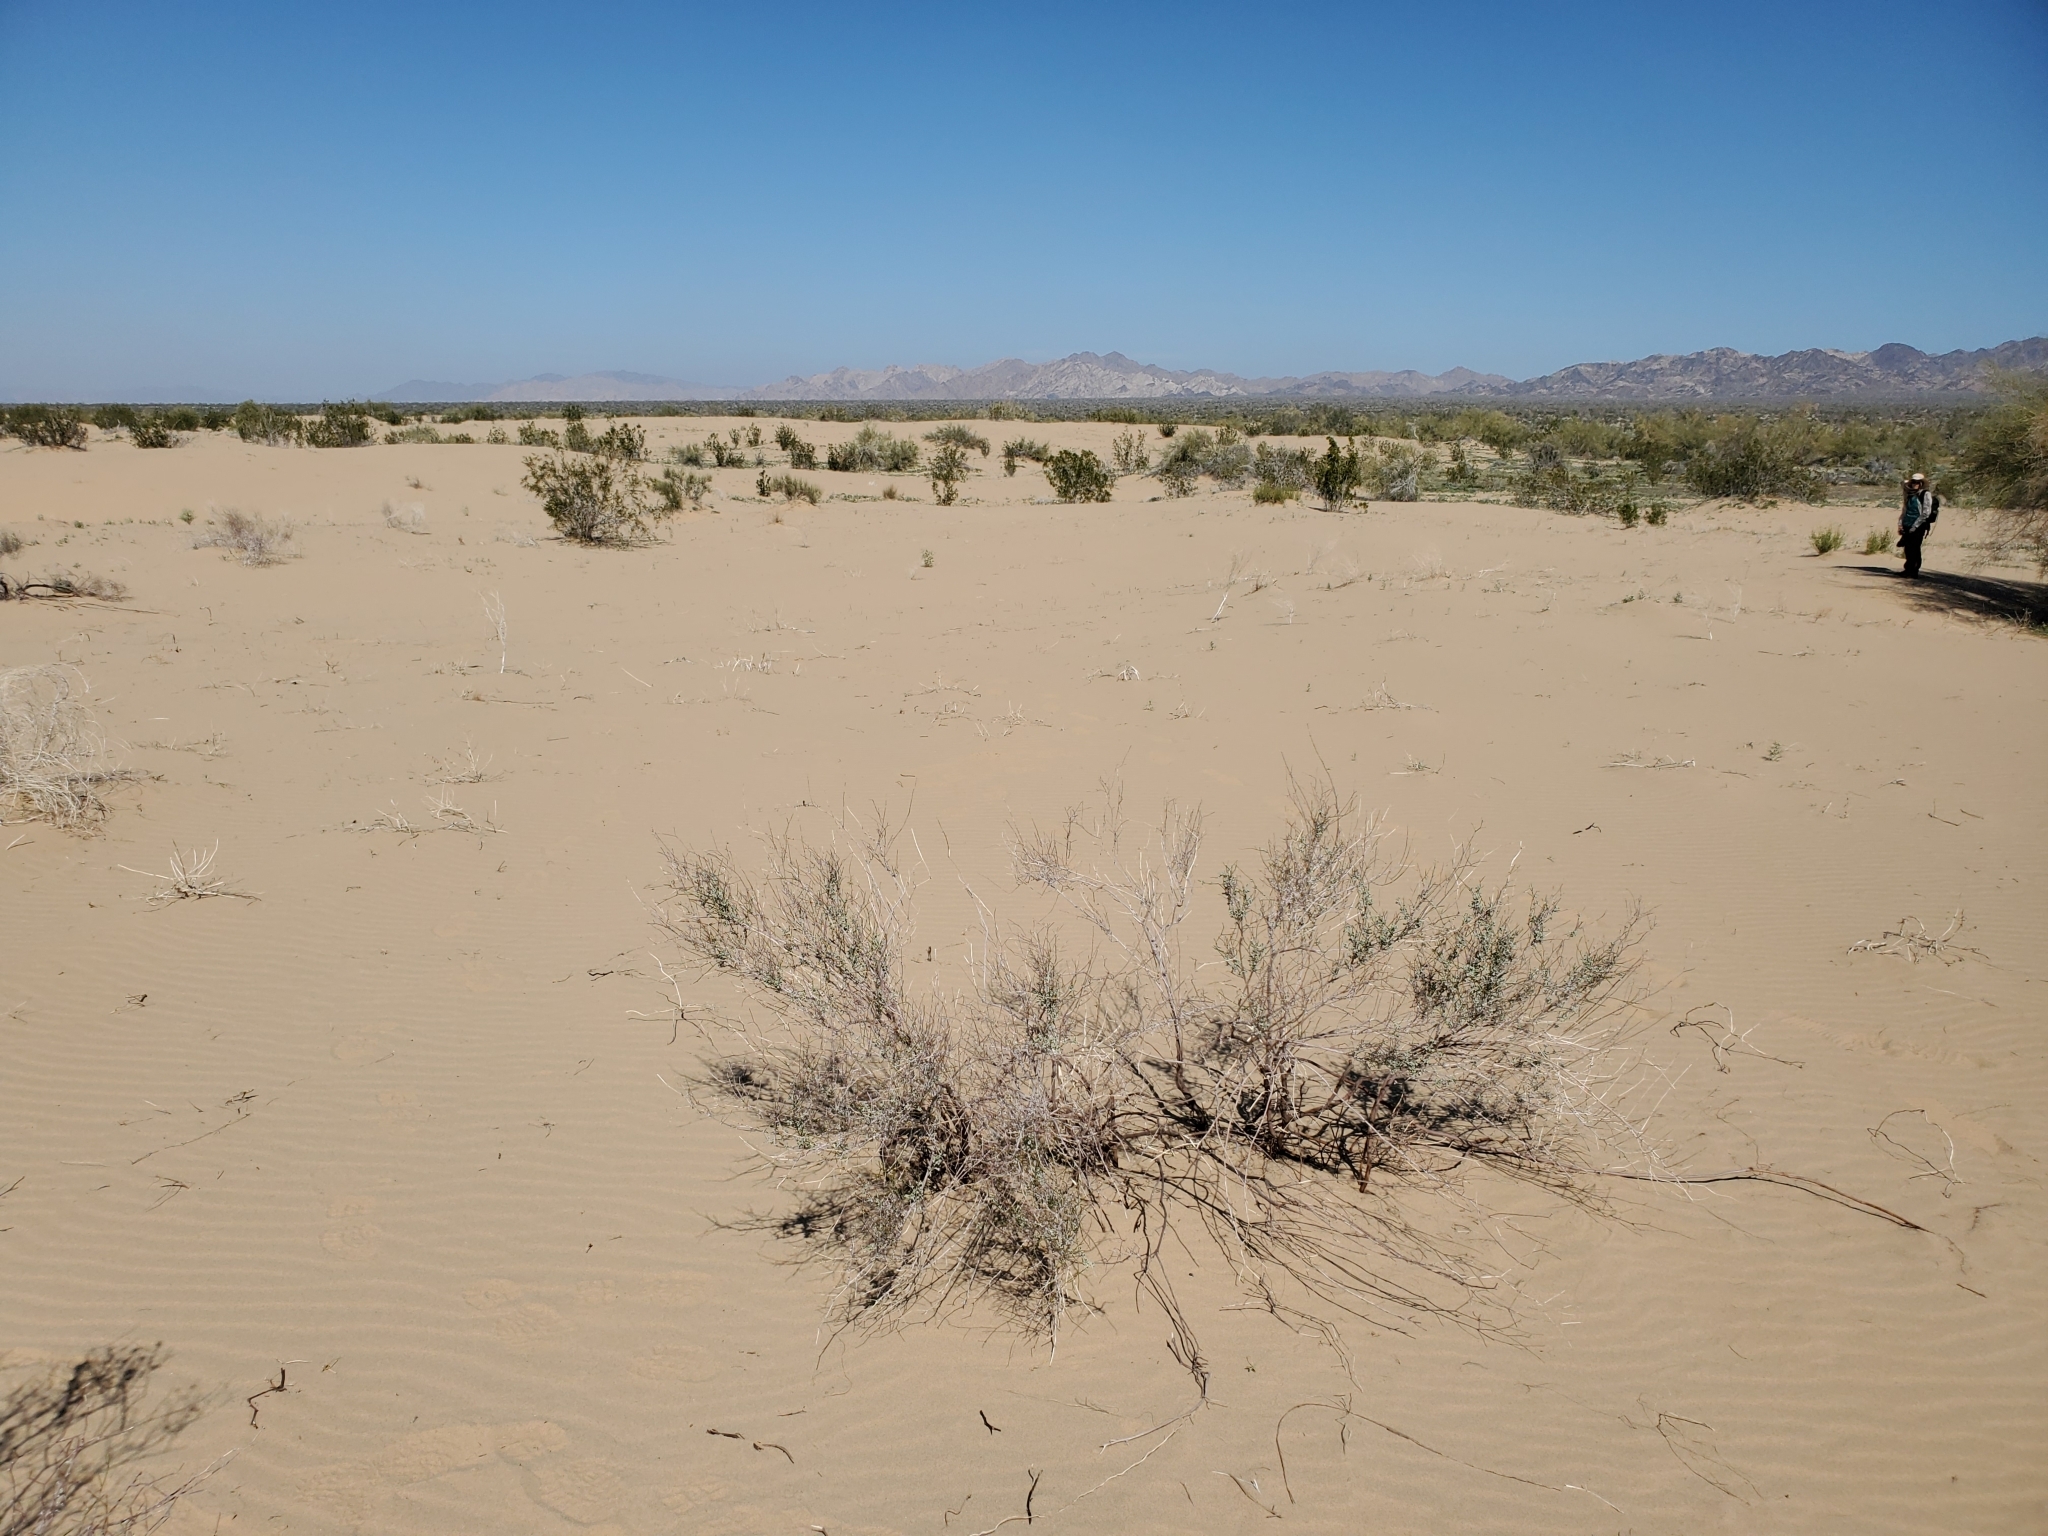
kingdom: Plantae
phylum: Tracheophyta
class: Magnoliopsida
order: Caryophyllales
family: Polygonaceae
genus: Eriogonum
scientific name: Eriogonum deserticola
